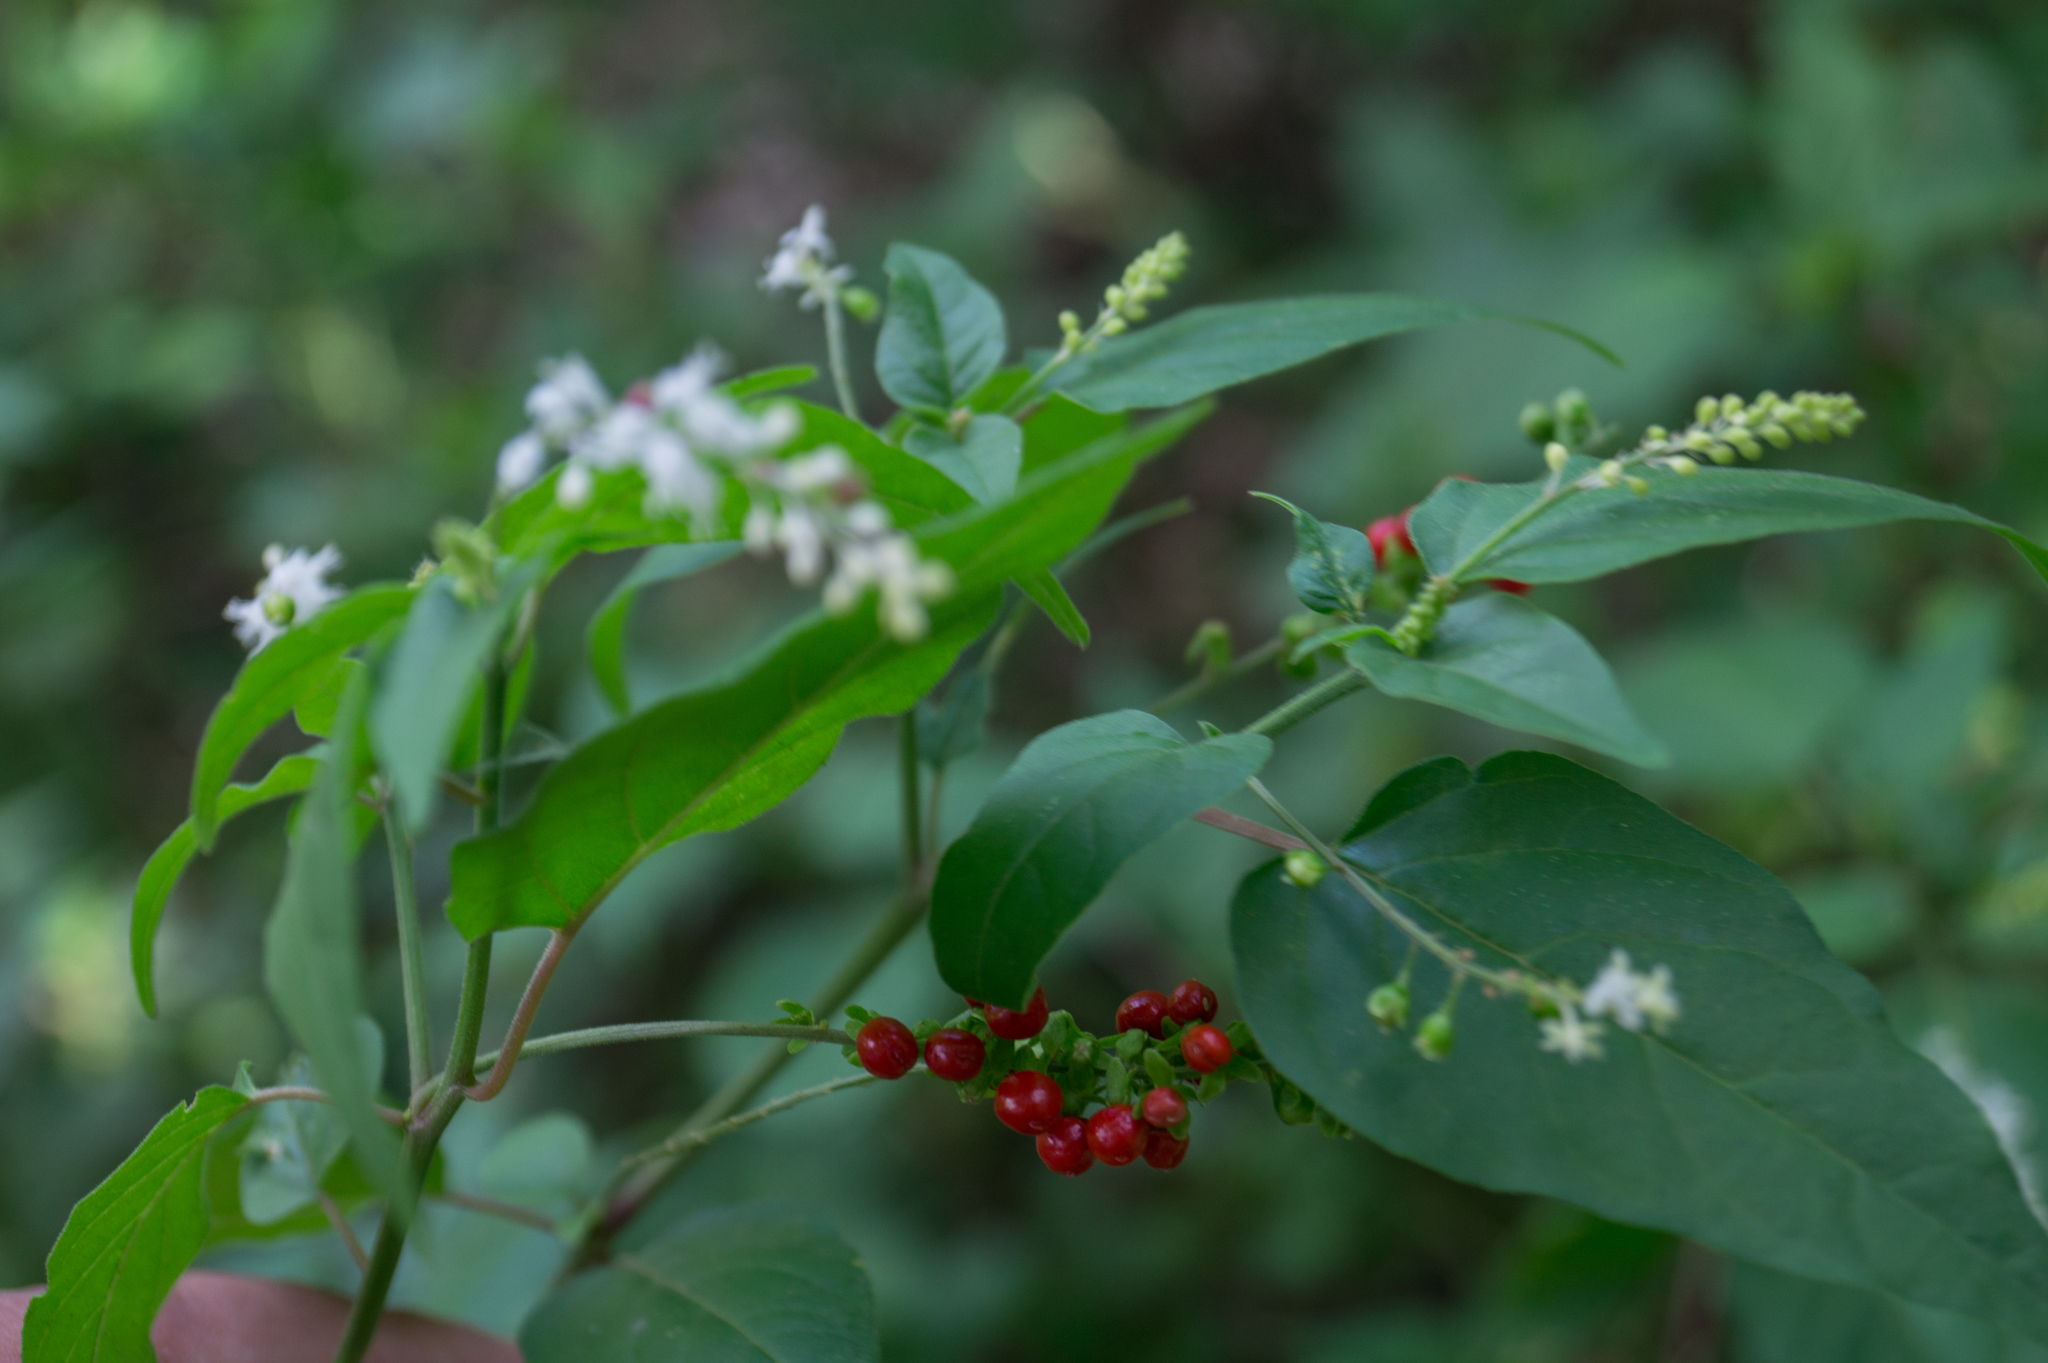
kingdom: Plantae
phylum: Tracheophyta
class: Magnoliopsida
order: Caryophyllales
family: Phytolaccaceae
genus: Rivina
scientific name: Rivina humilis
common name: Rougeplant
